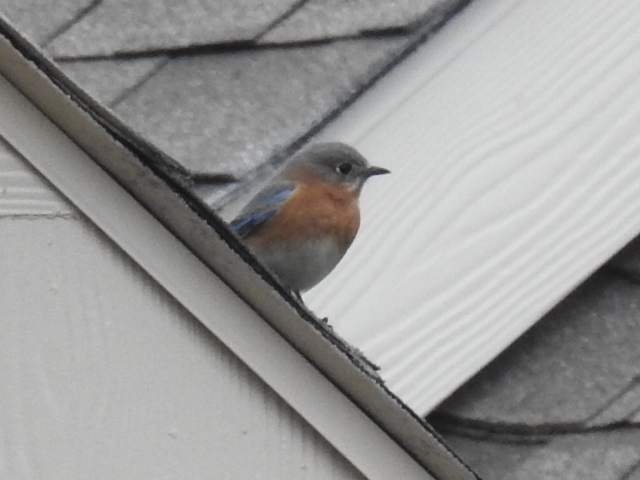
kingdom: Animalia
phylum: Chordata
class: Aves
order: Passeriformes
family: Turdidae
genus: Sialia
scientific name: Sialia sialis
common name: Eastern bluebird
